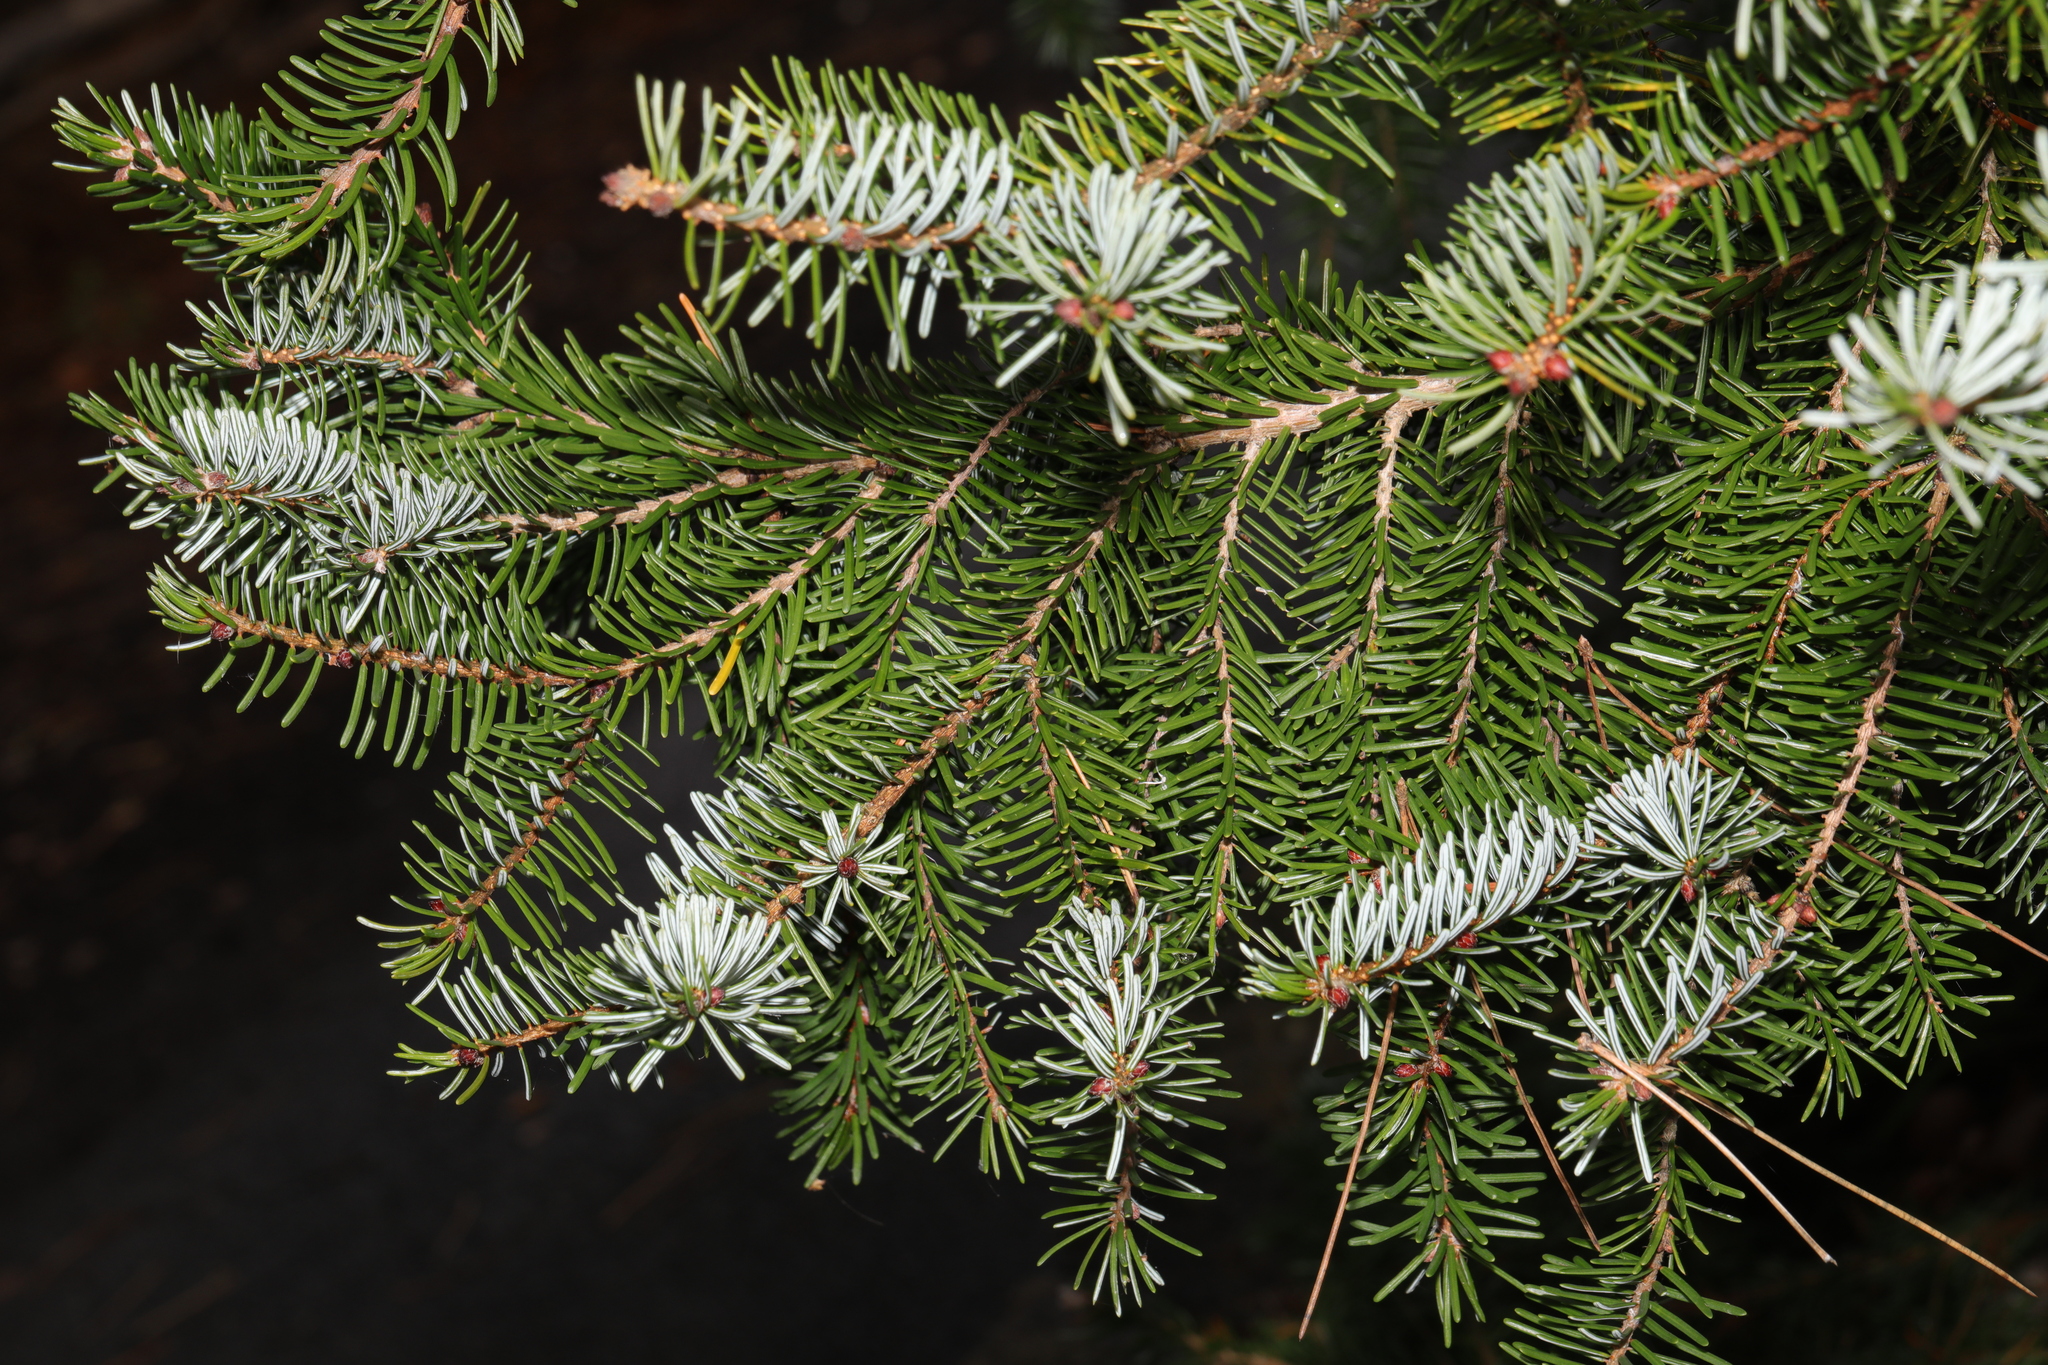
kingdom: Plantae
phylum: Tracheophyta
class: Pinopsida
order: Pinales
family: Pinaceae
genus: Picea
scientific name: Picea omorika
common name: Serbian spruce
